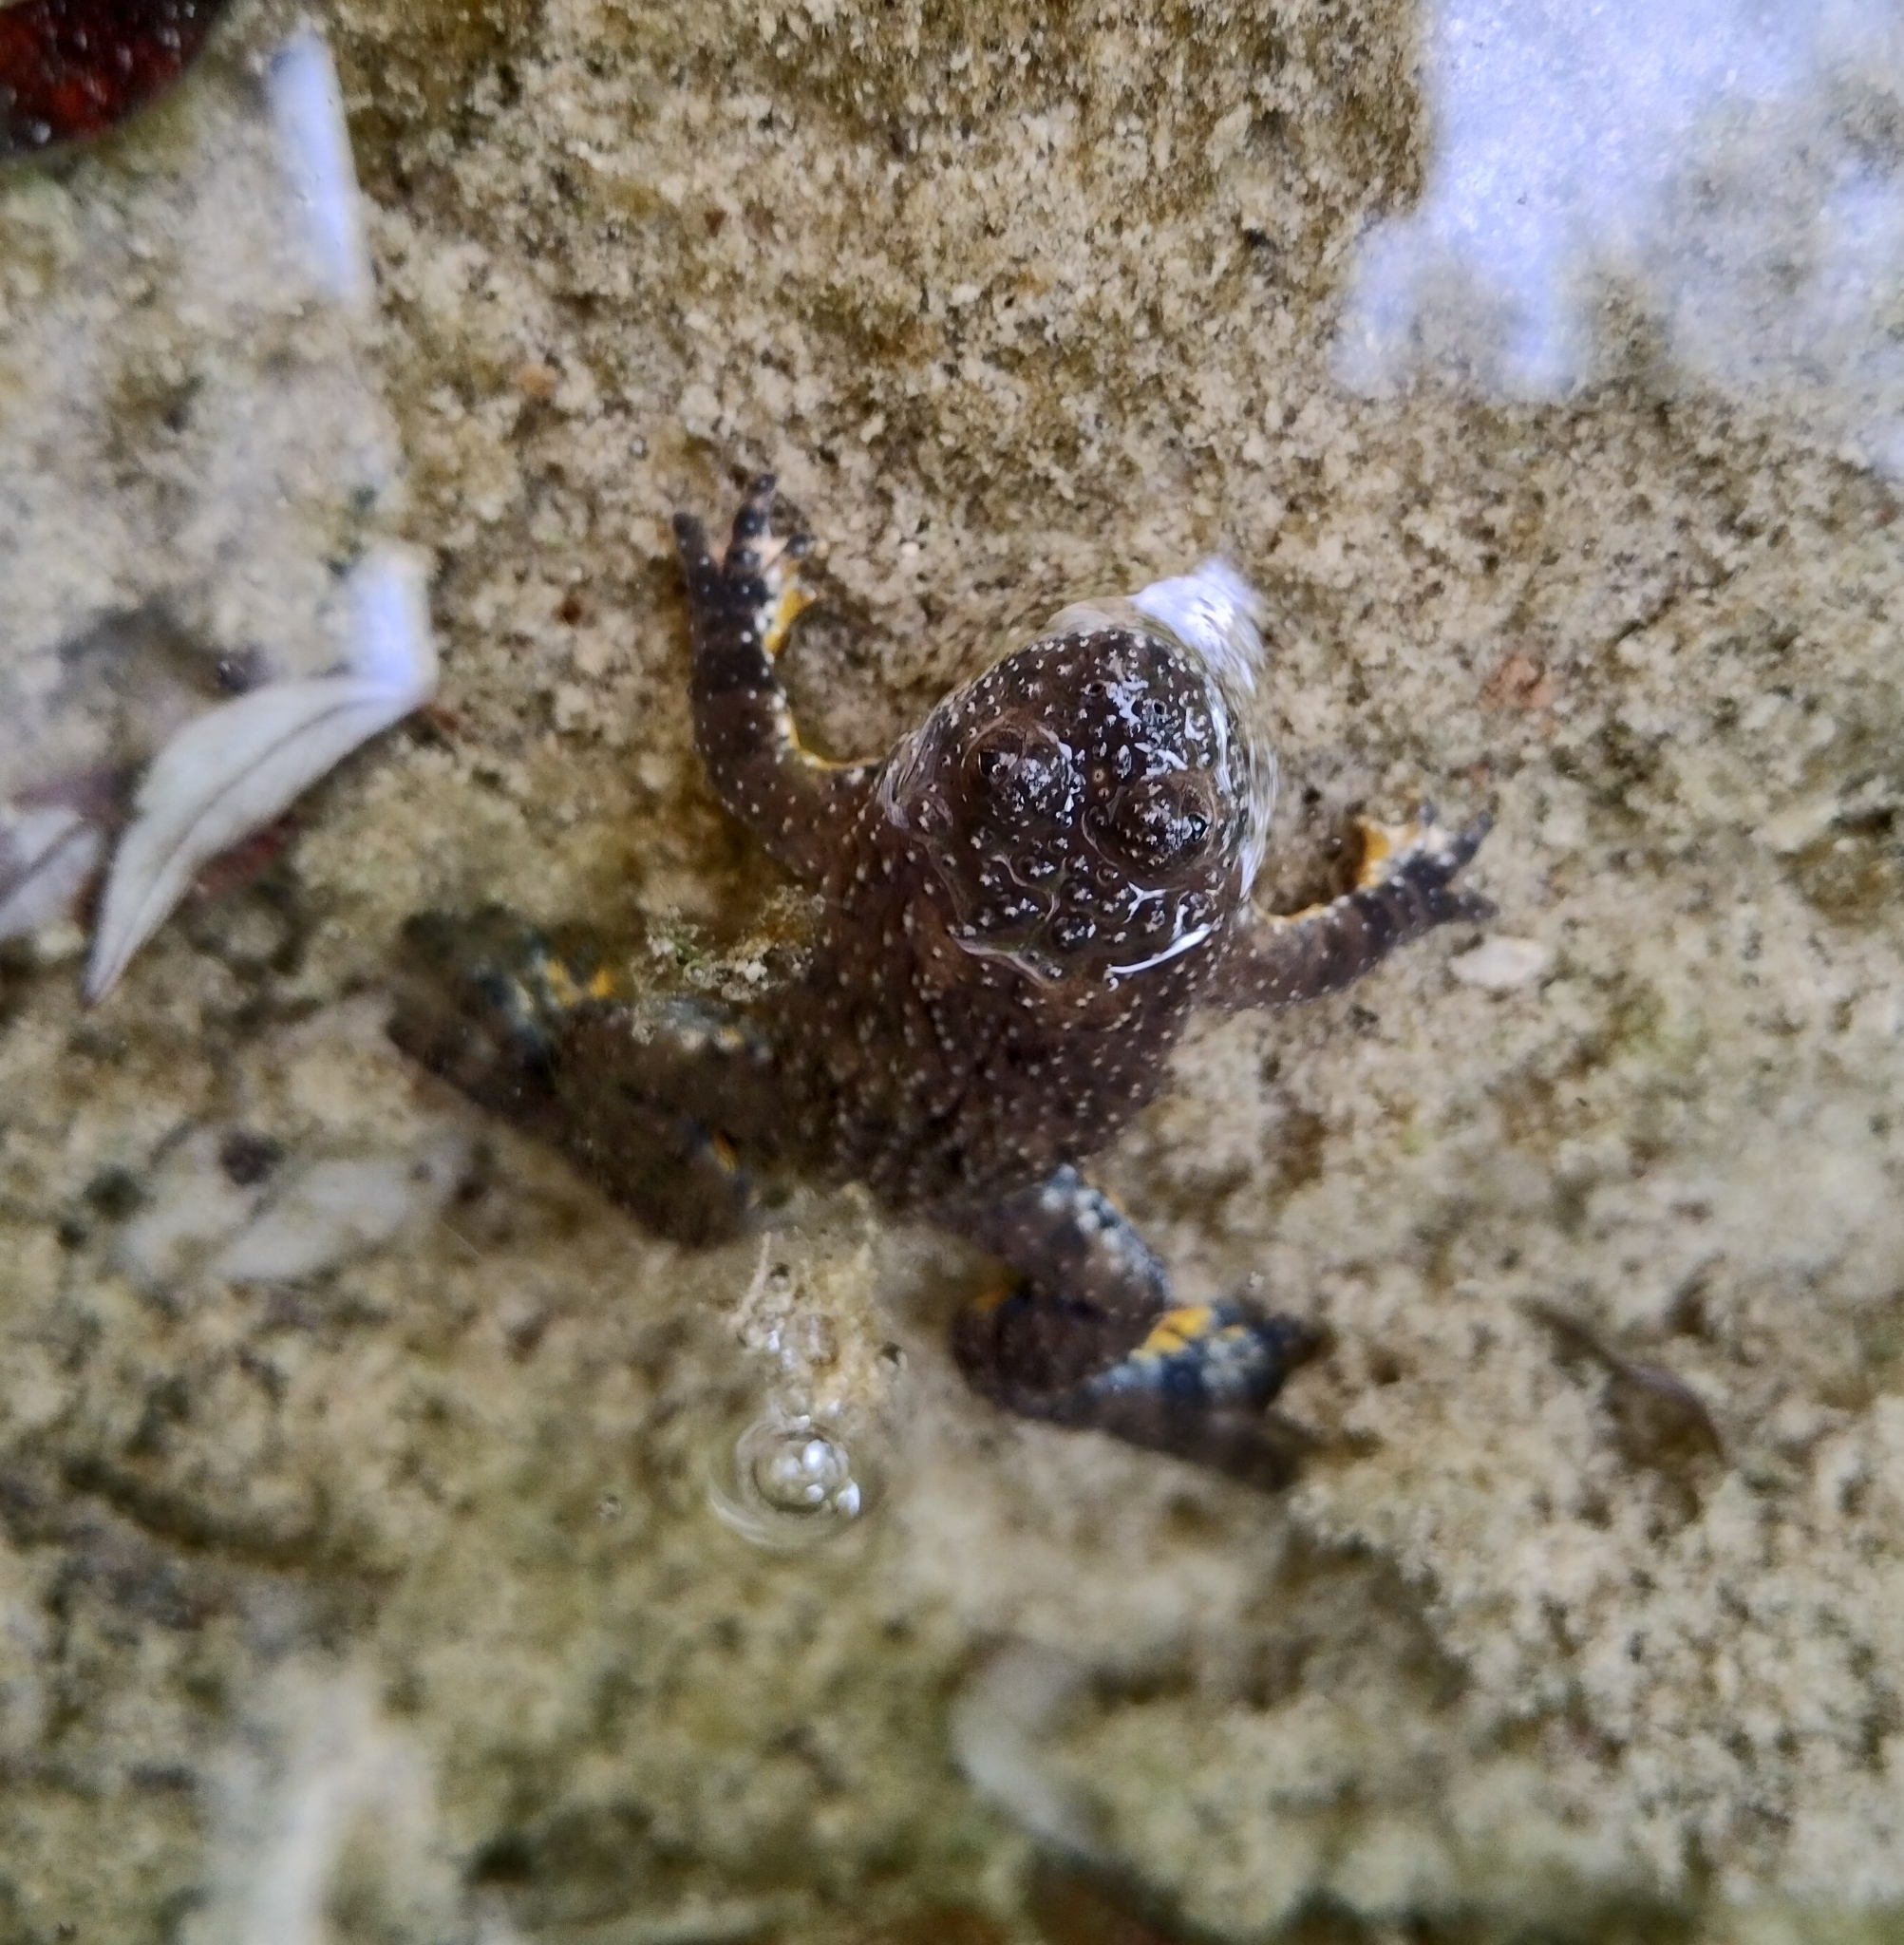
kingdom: Animalia
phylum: Chordata
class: Amphibia
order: Anura
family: Bombinatoridae
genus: Bombina
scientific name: Bombina variegata
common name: Yellow-bellied toad
